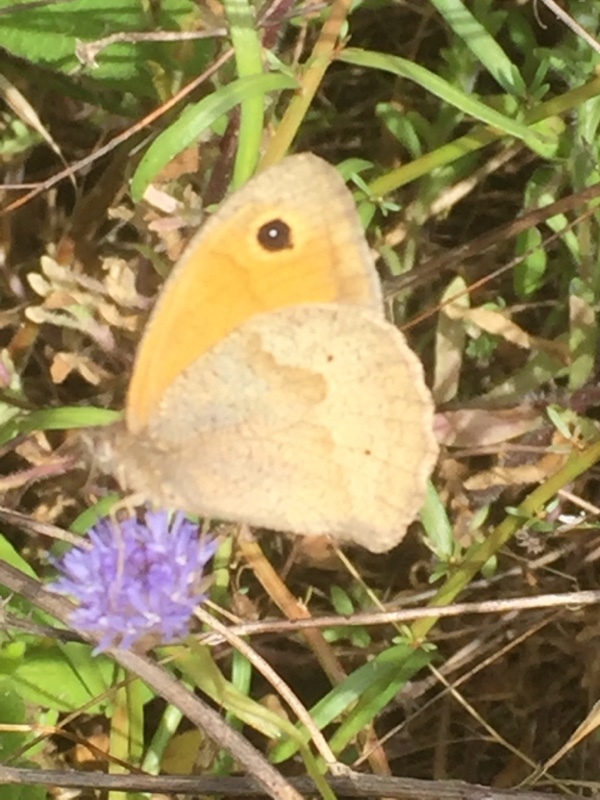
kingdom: Animalia
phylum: Arthropoda
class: Insecta
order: Lepidoptera
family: Nymphalidae
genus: Maniola
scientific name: Maniola jurtina
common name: Meadow brown
